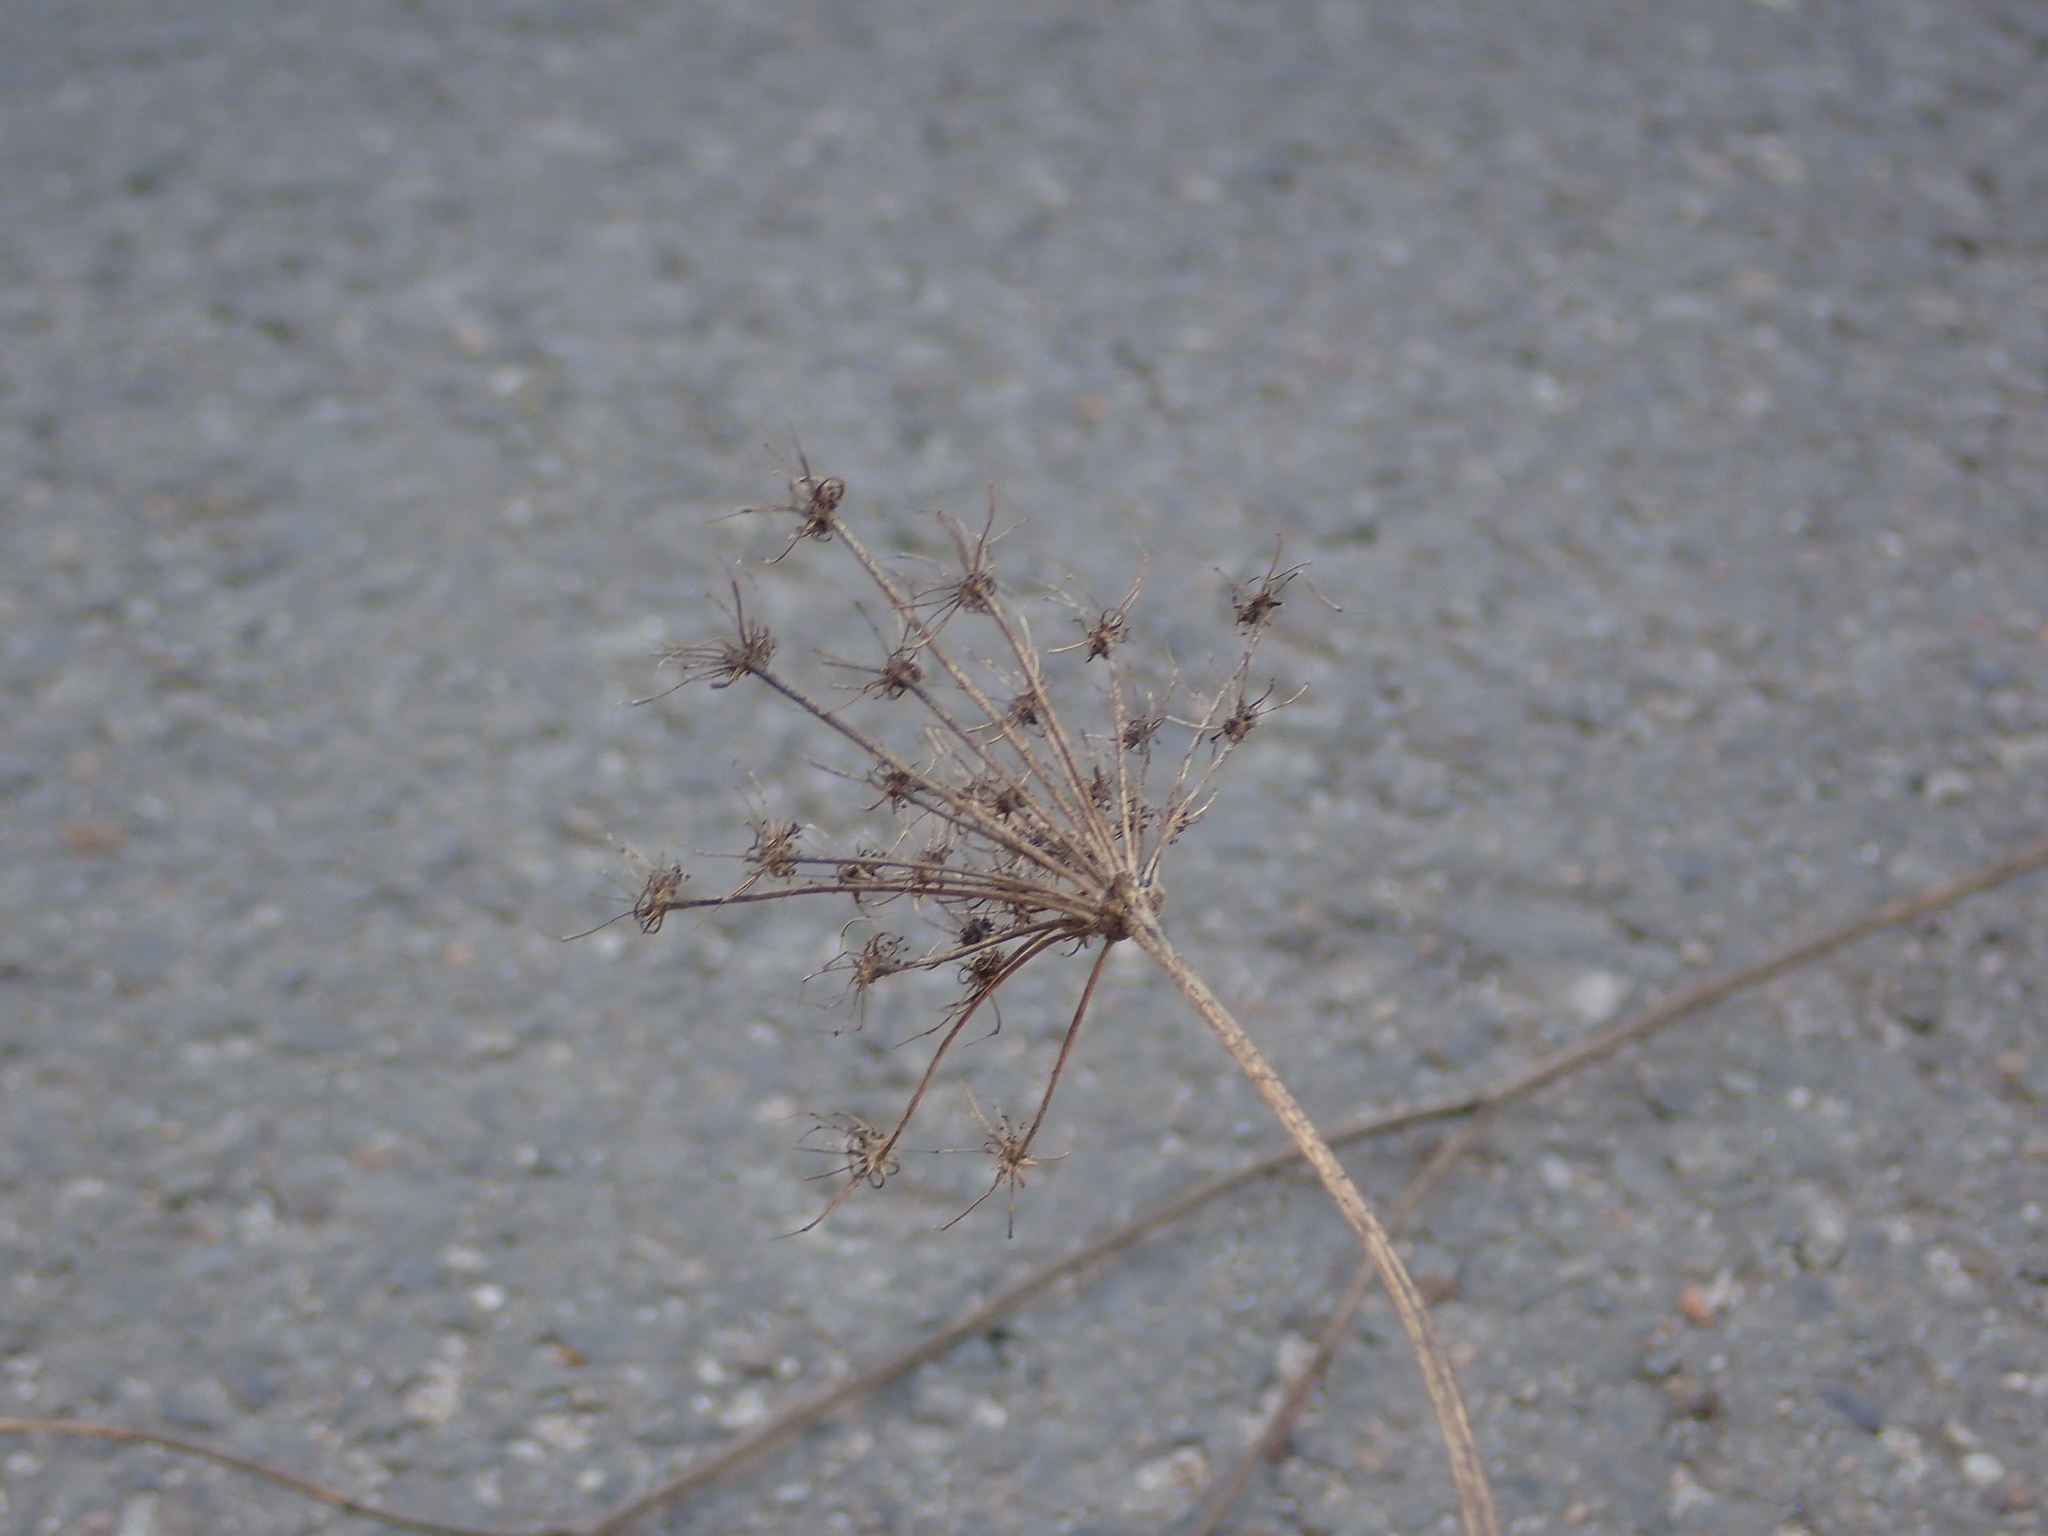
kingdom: Plantae
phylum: Tracheophyta
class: Magnoliopsida
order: Apiales
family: Apiaceae
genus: Daucus
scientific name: Daucus carota
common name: Wild carrot
